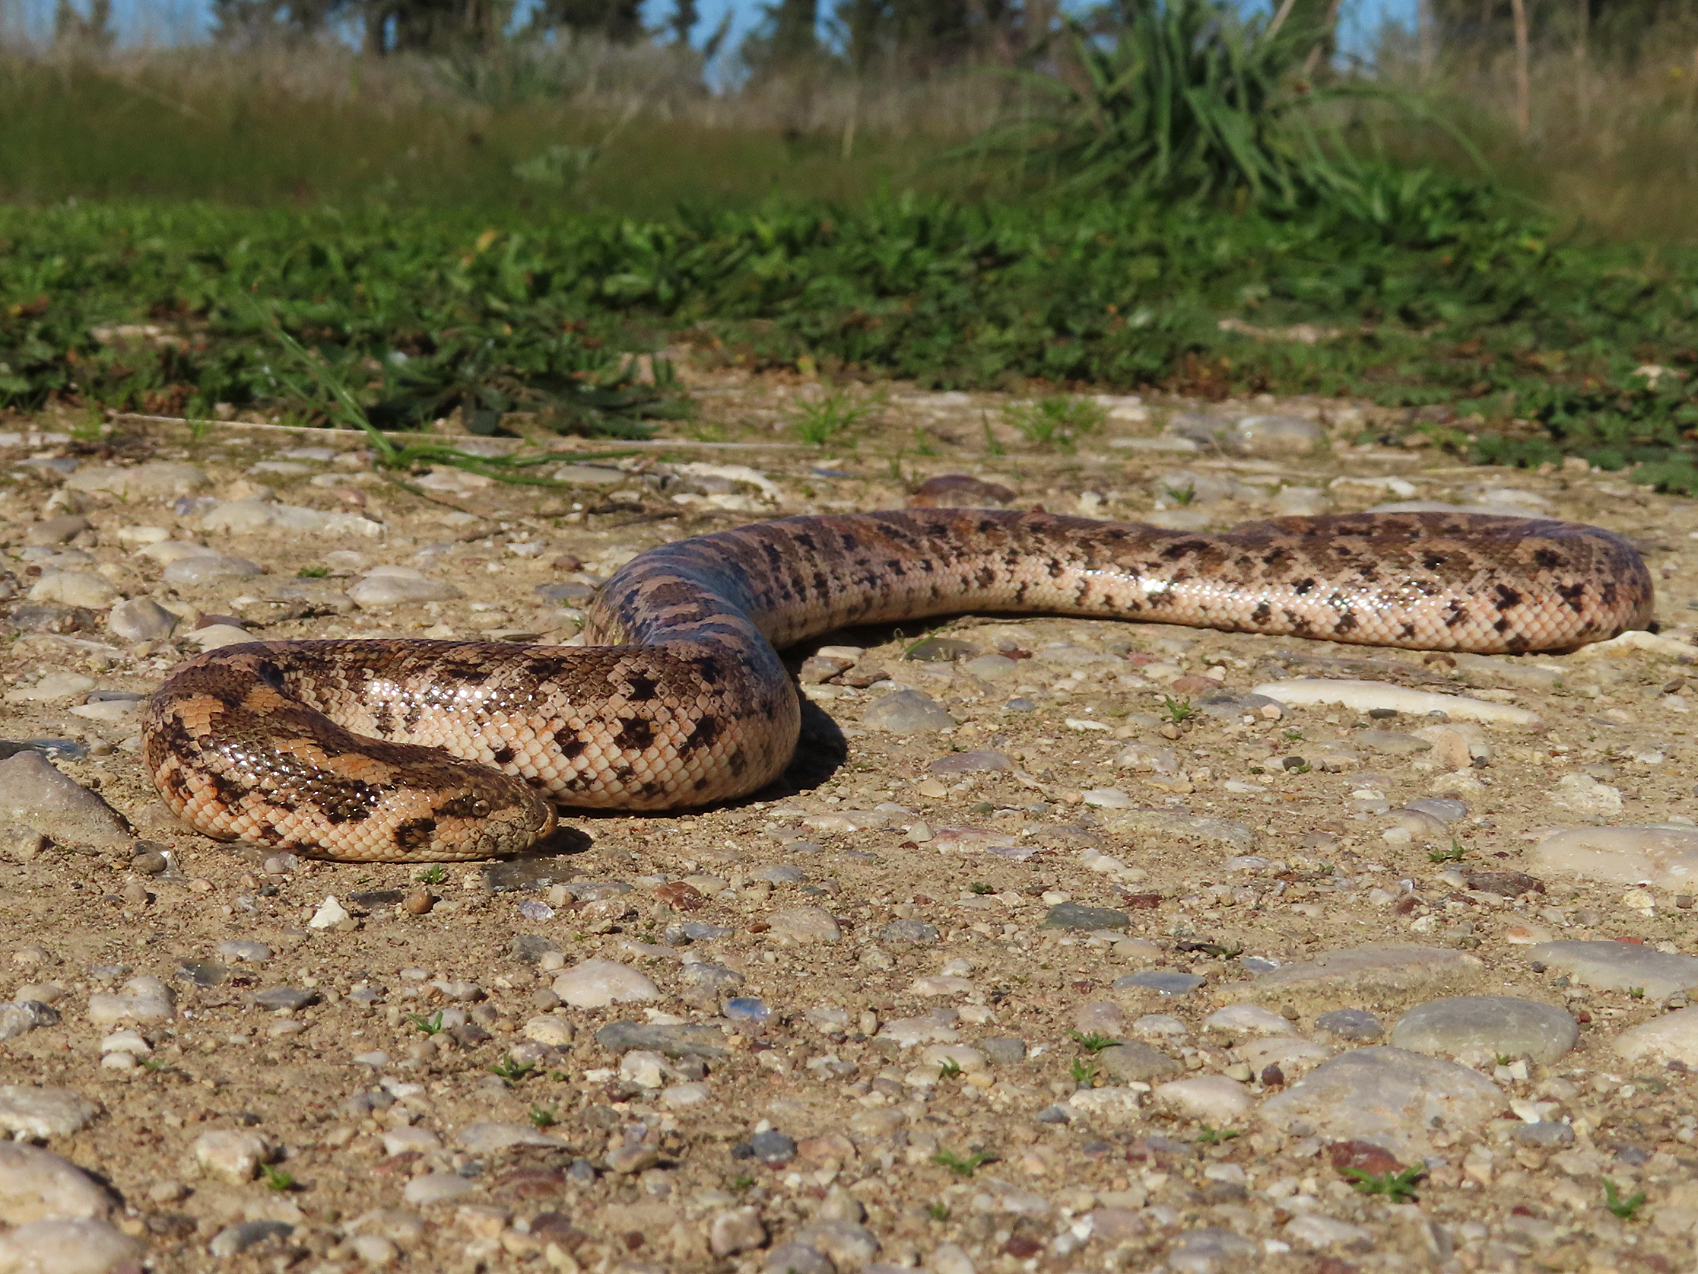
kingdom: Animalia
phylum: Chordata
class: Squamata
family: Boidae
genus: Eryx
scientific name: Eryx jaculus
